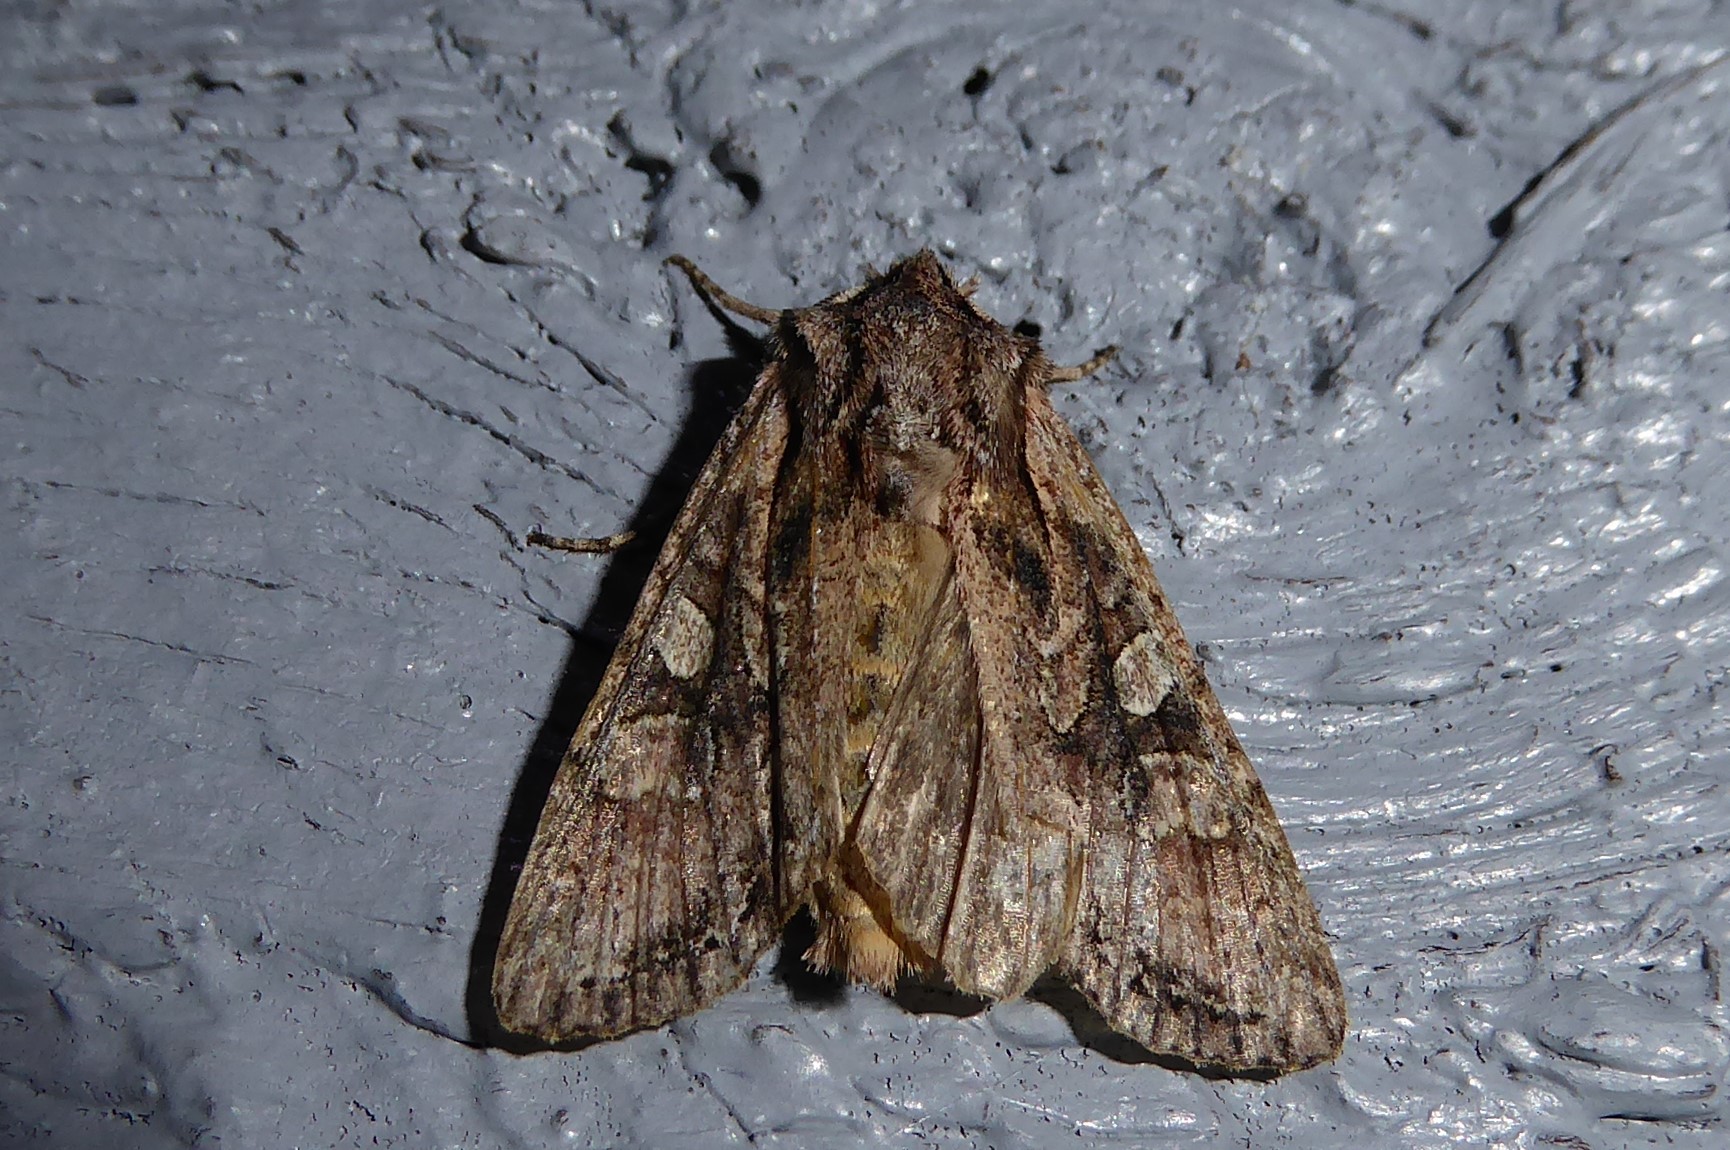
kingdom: Animalia
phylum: Arthropoda
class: Insecta
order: Lepidoptera
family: Noctuidae
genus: Ichneutica
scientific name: Ichneutica mutans
